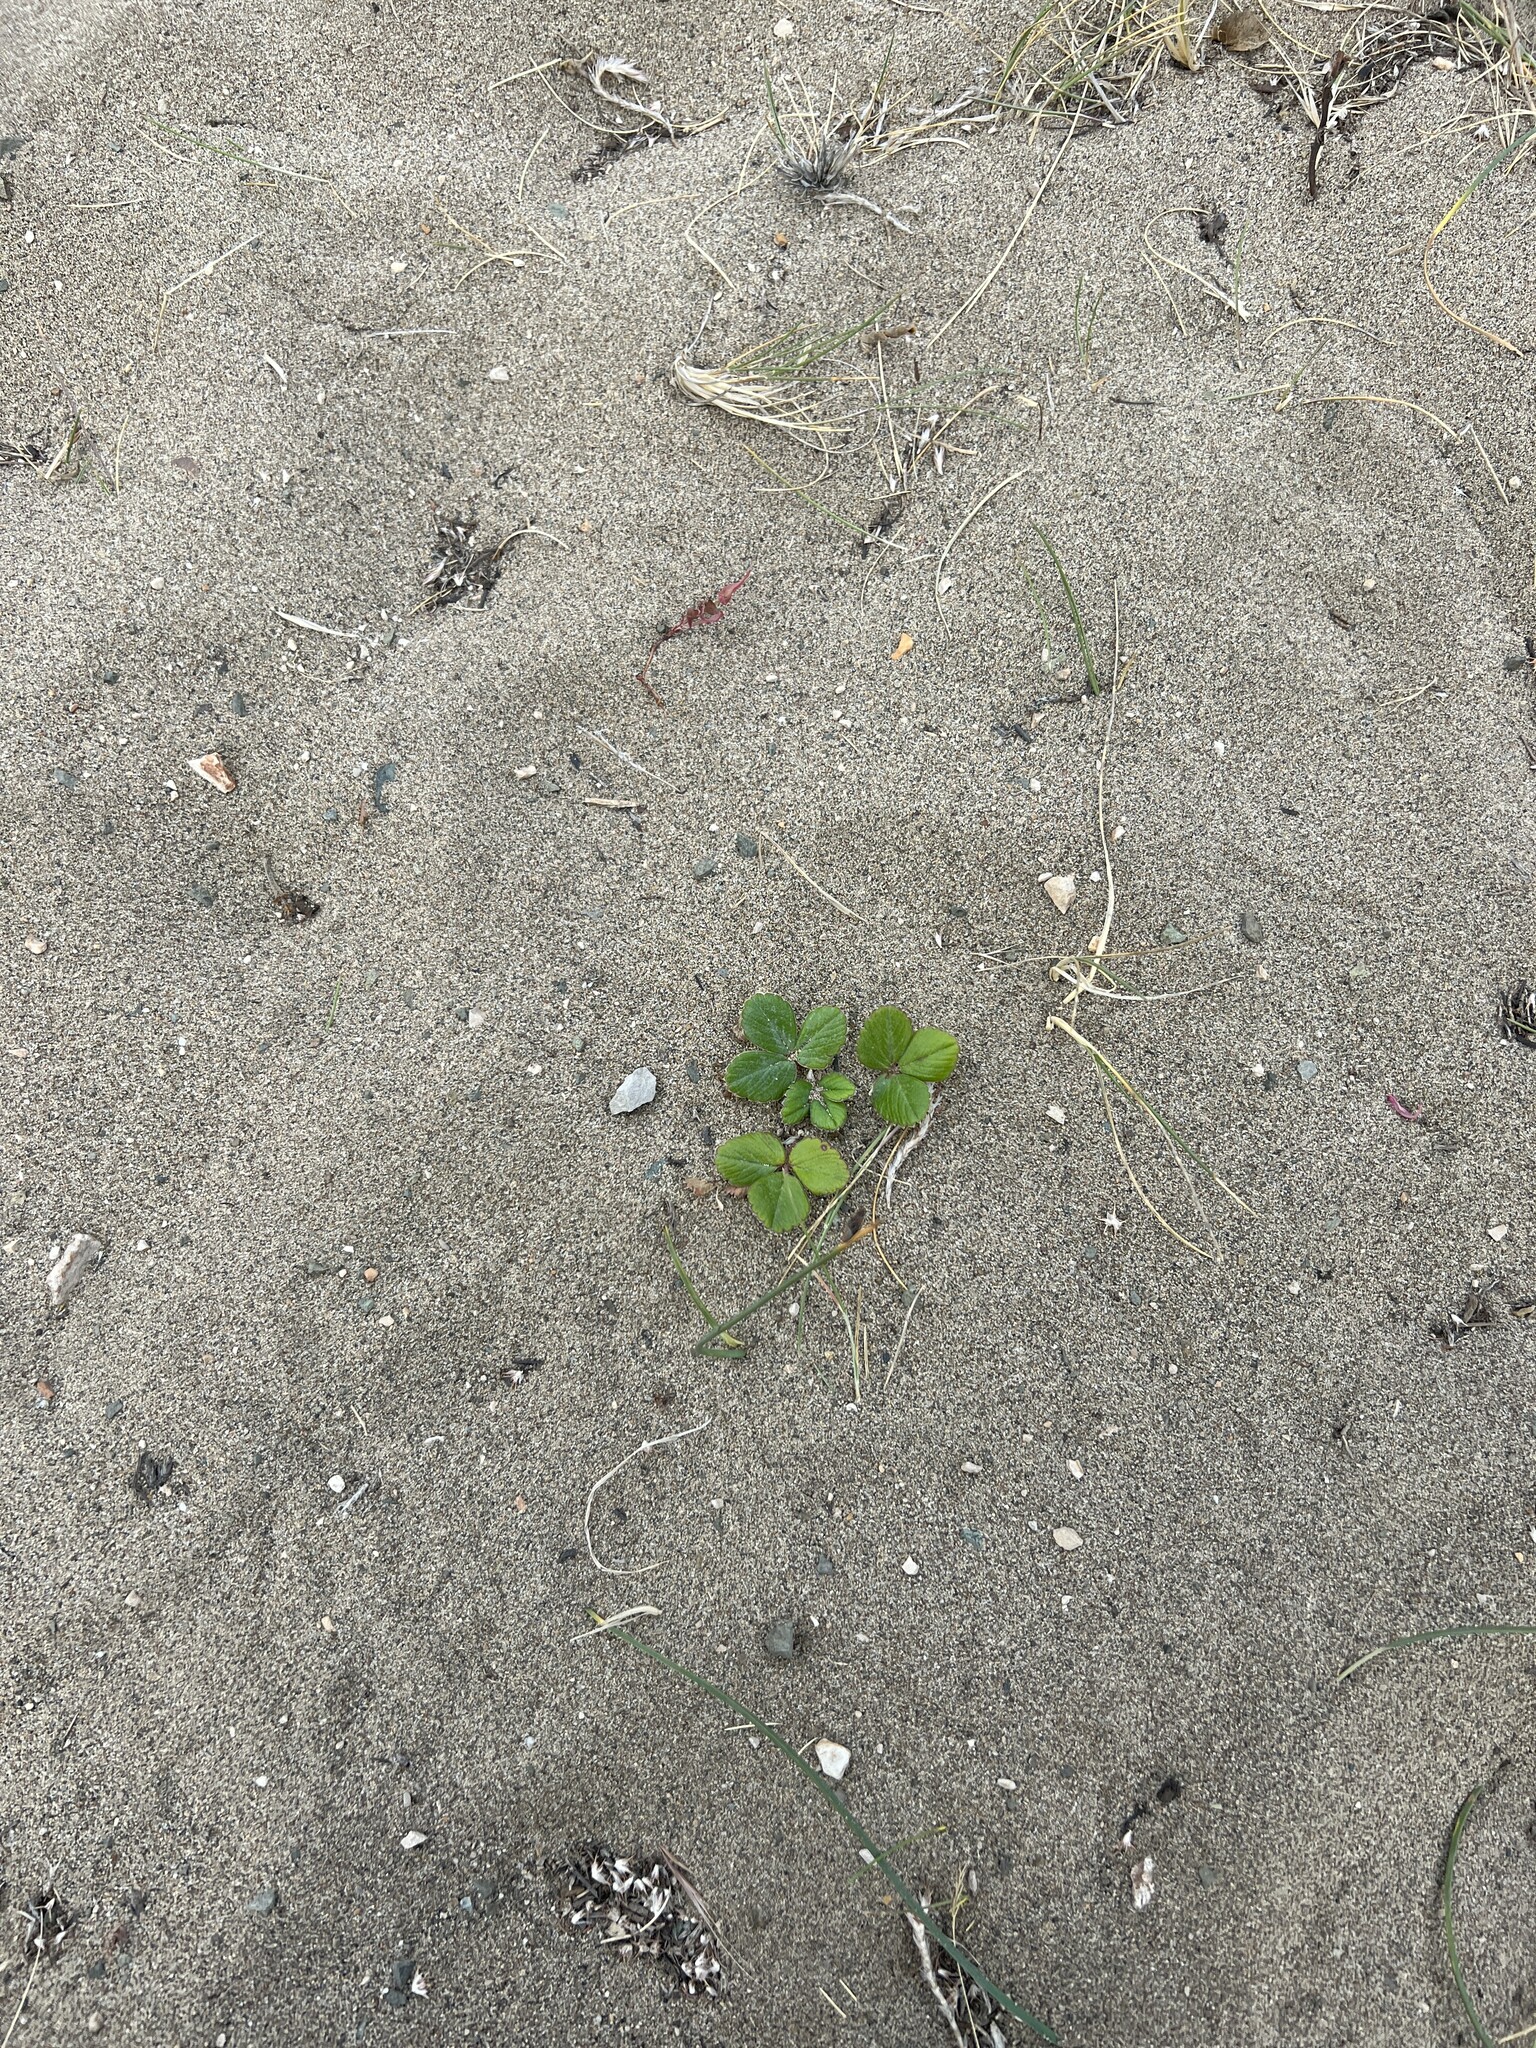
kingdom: Plantae
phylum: Tracheophyta
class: Magnoliopsida
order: Rosales
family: Rosaceae
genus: Fragaria
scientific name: Fragaria chiloensis
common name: Beach strawberry
